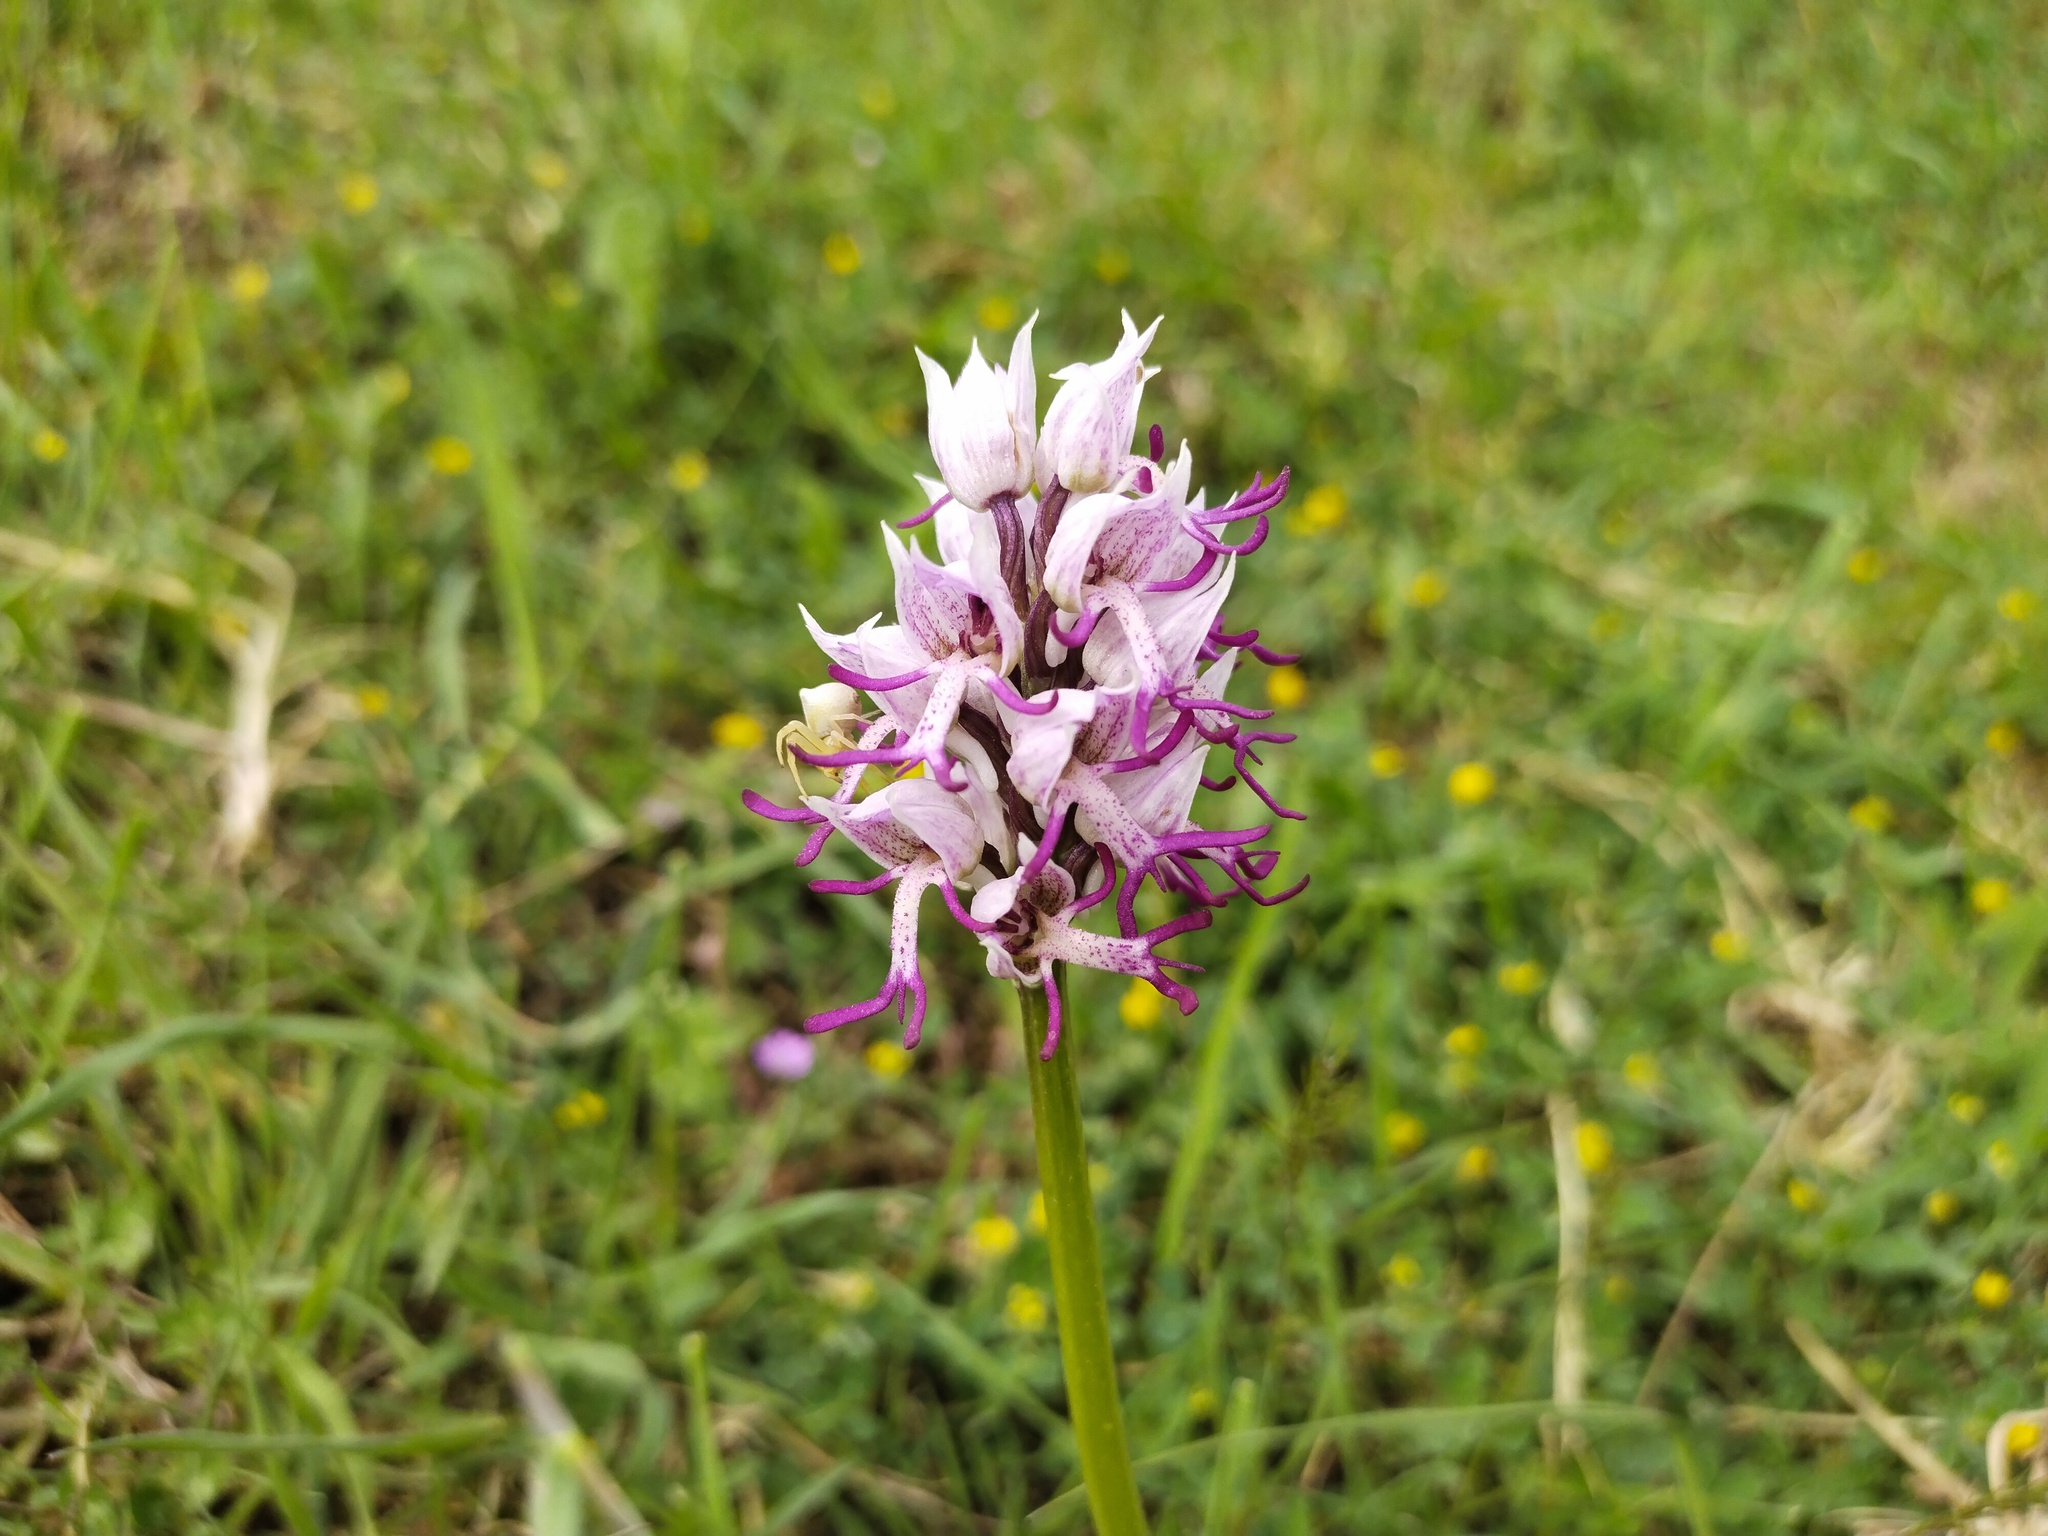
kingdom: Plantae
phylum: Tracheophyta
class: Liliopsida
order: Asparagales
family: Orchidaceae
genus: Orchis
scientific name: Orchis simia
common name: Monkey orchid
